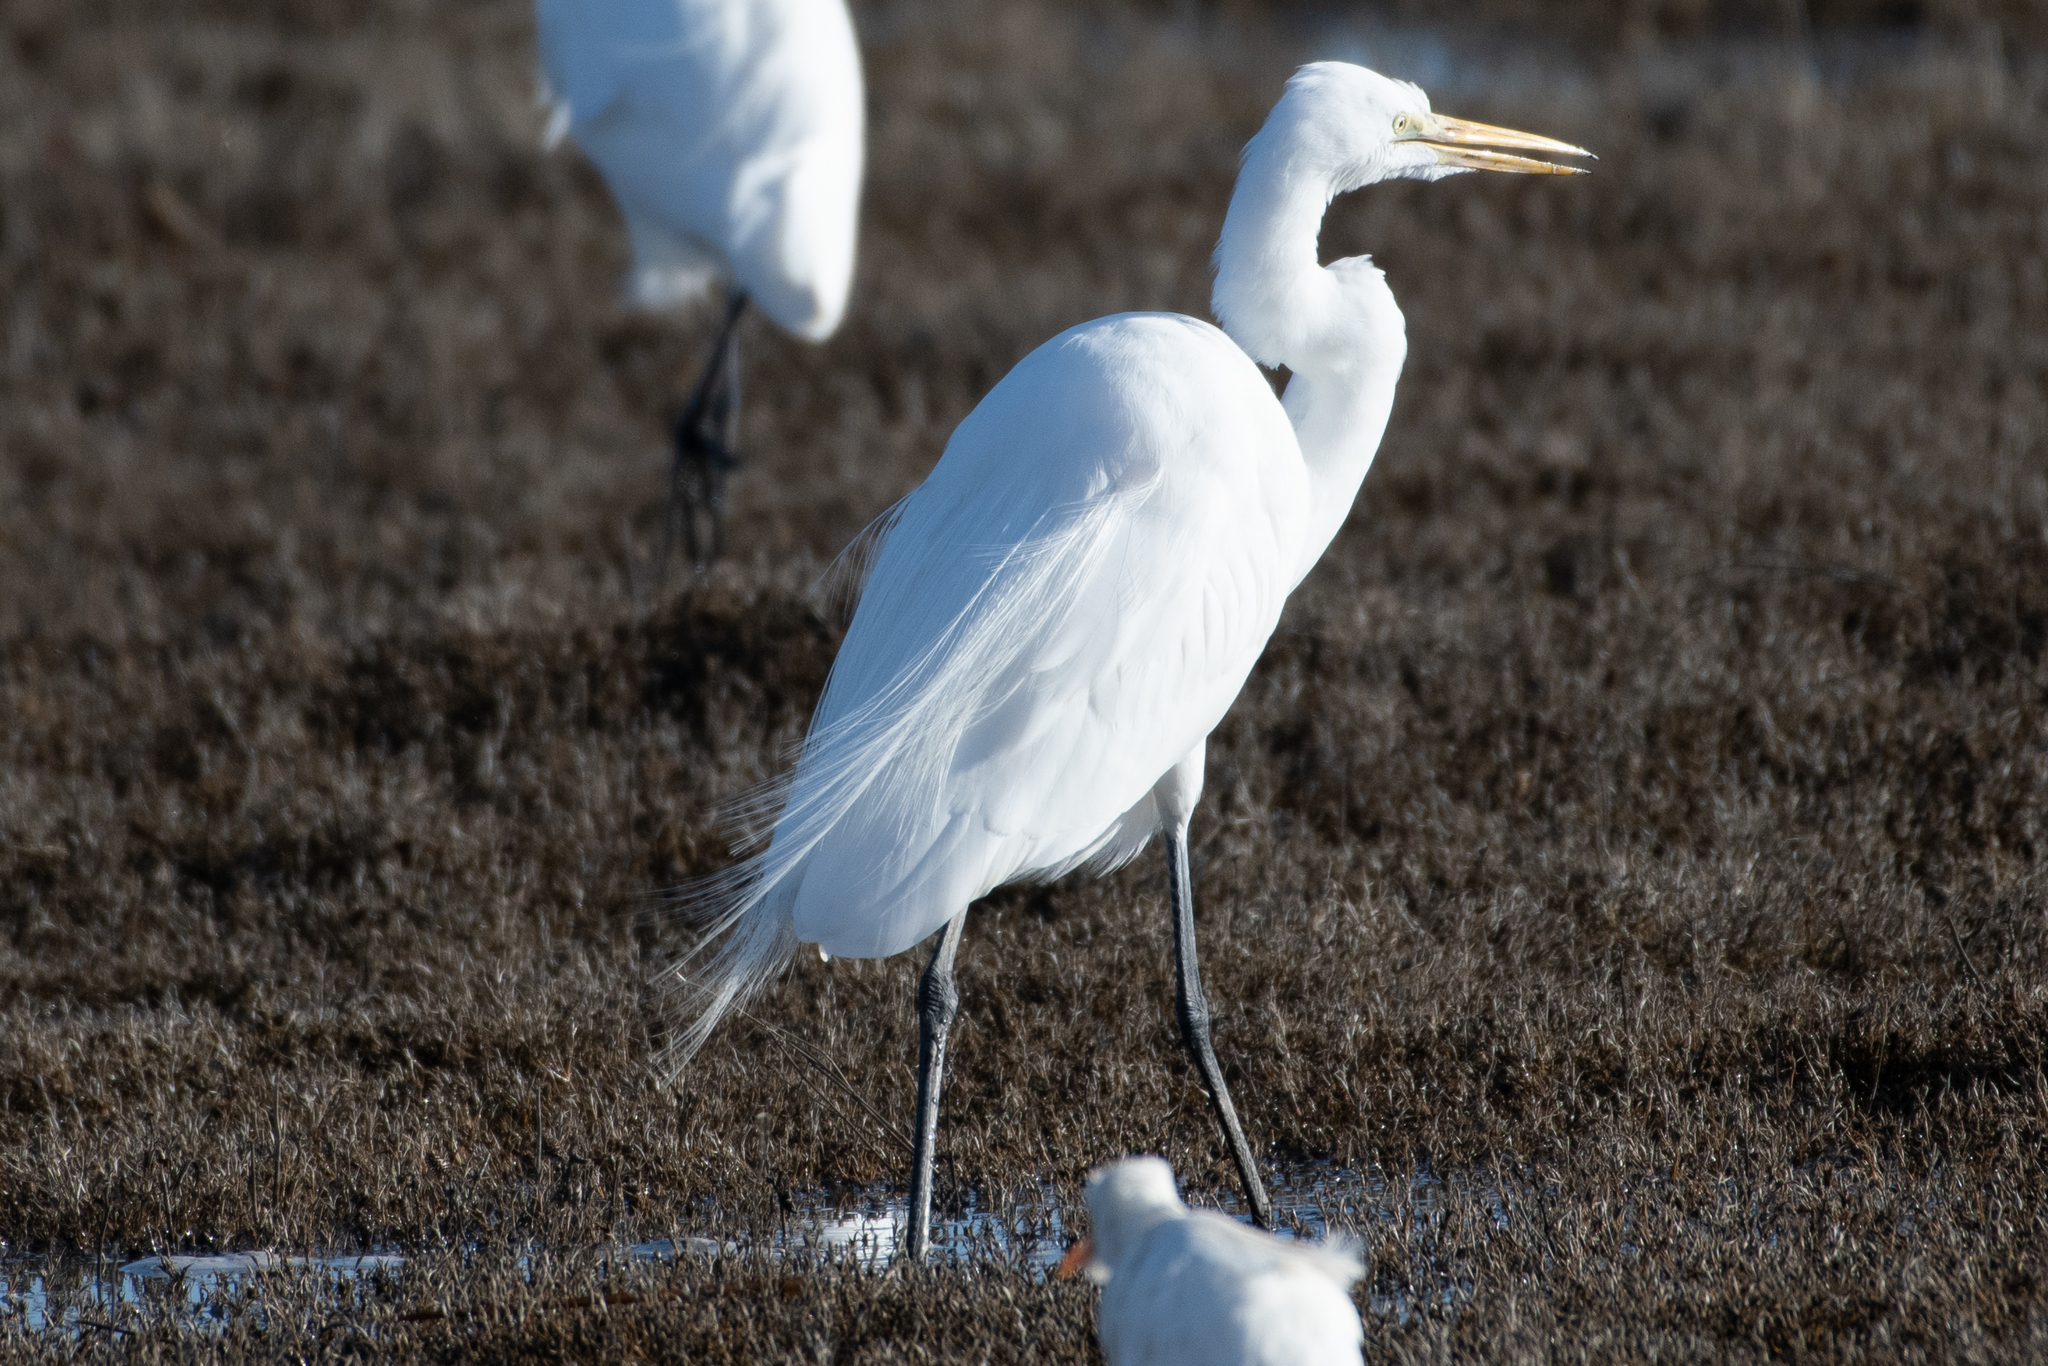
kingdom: Animalia
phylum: Chordata
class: Aves
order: Pelecaniformes
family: Ardeidae
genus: Ardea
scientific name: Ardea alba
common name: Great egret
